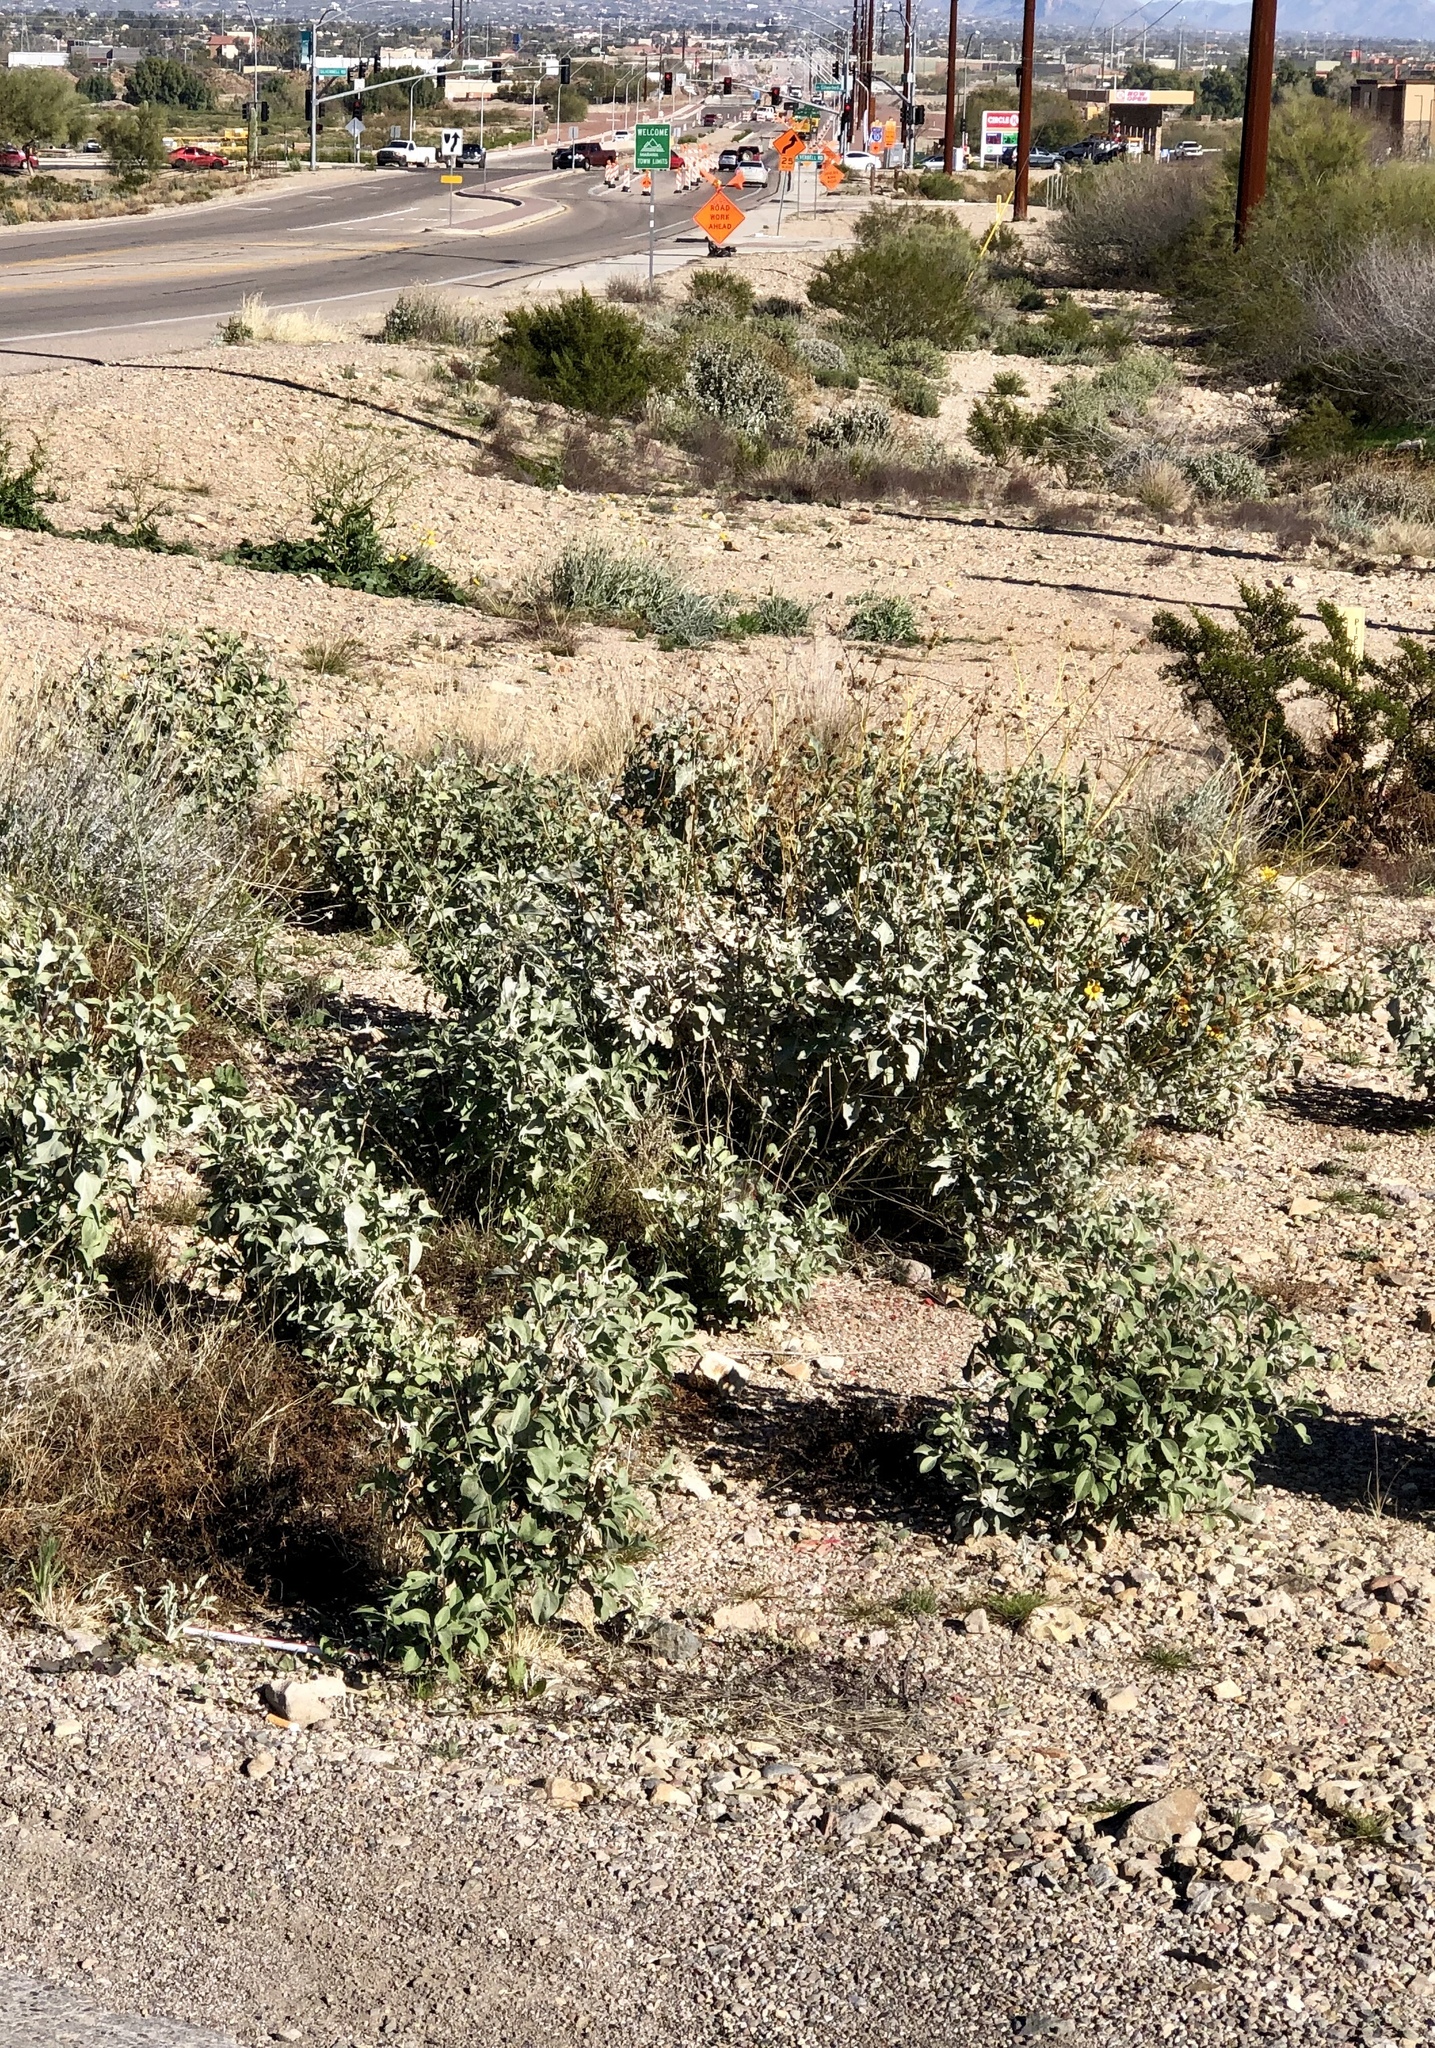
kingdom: Plantae
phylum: Tracheophyta
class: Magnoliopsida
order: Asterales
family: Asteraceae
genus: Encelia
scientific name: Encelia farinosa
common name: Brittlebush
